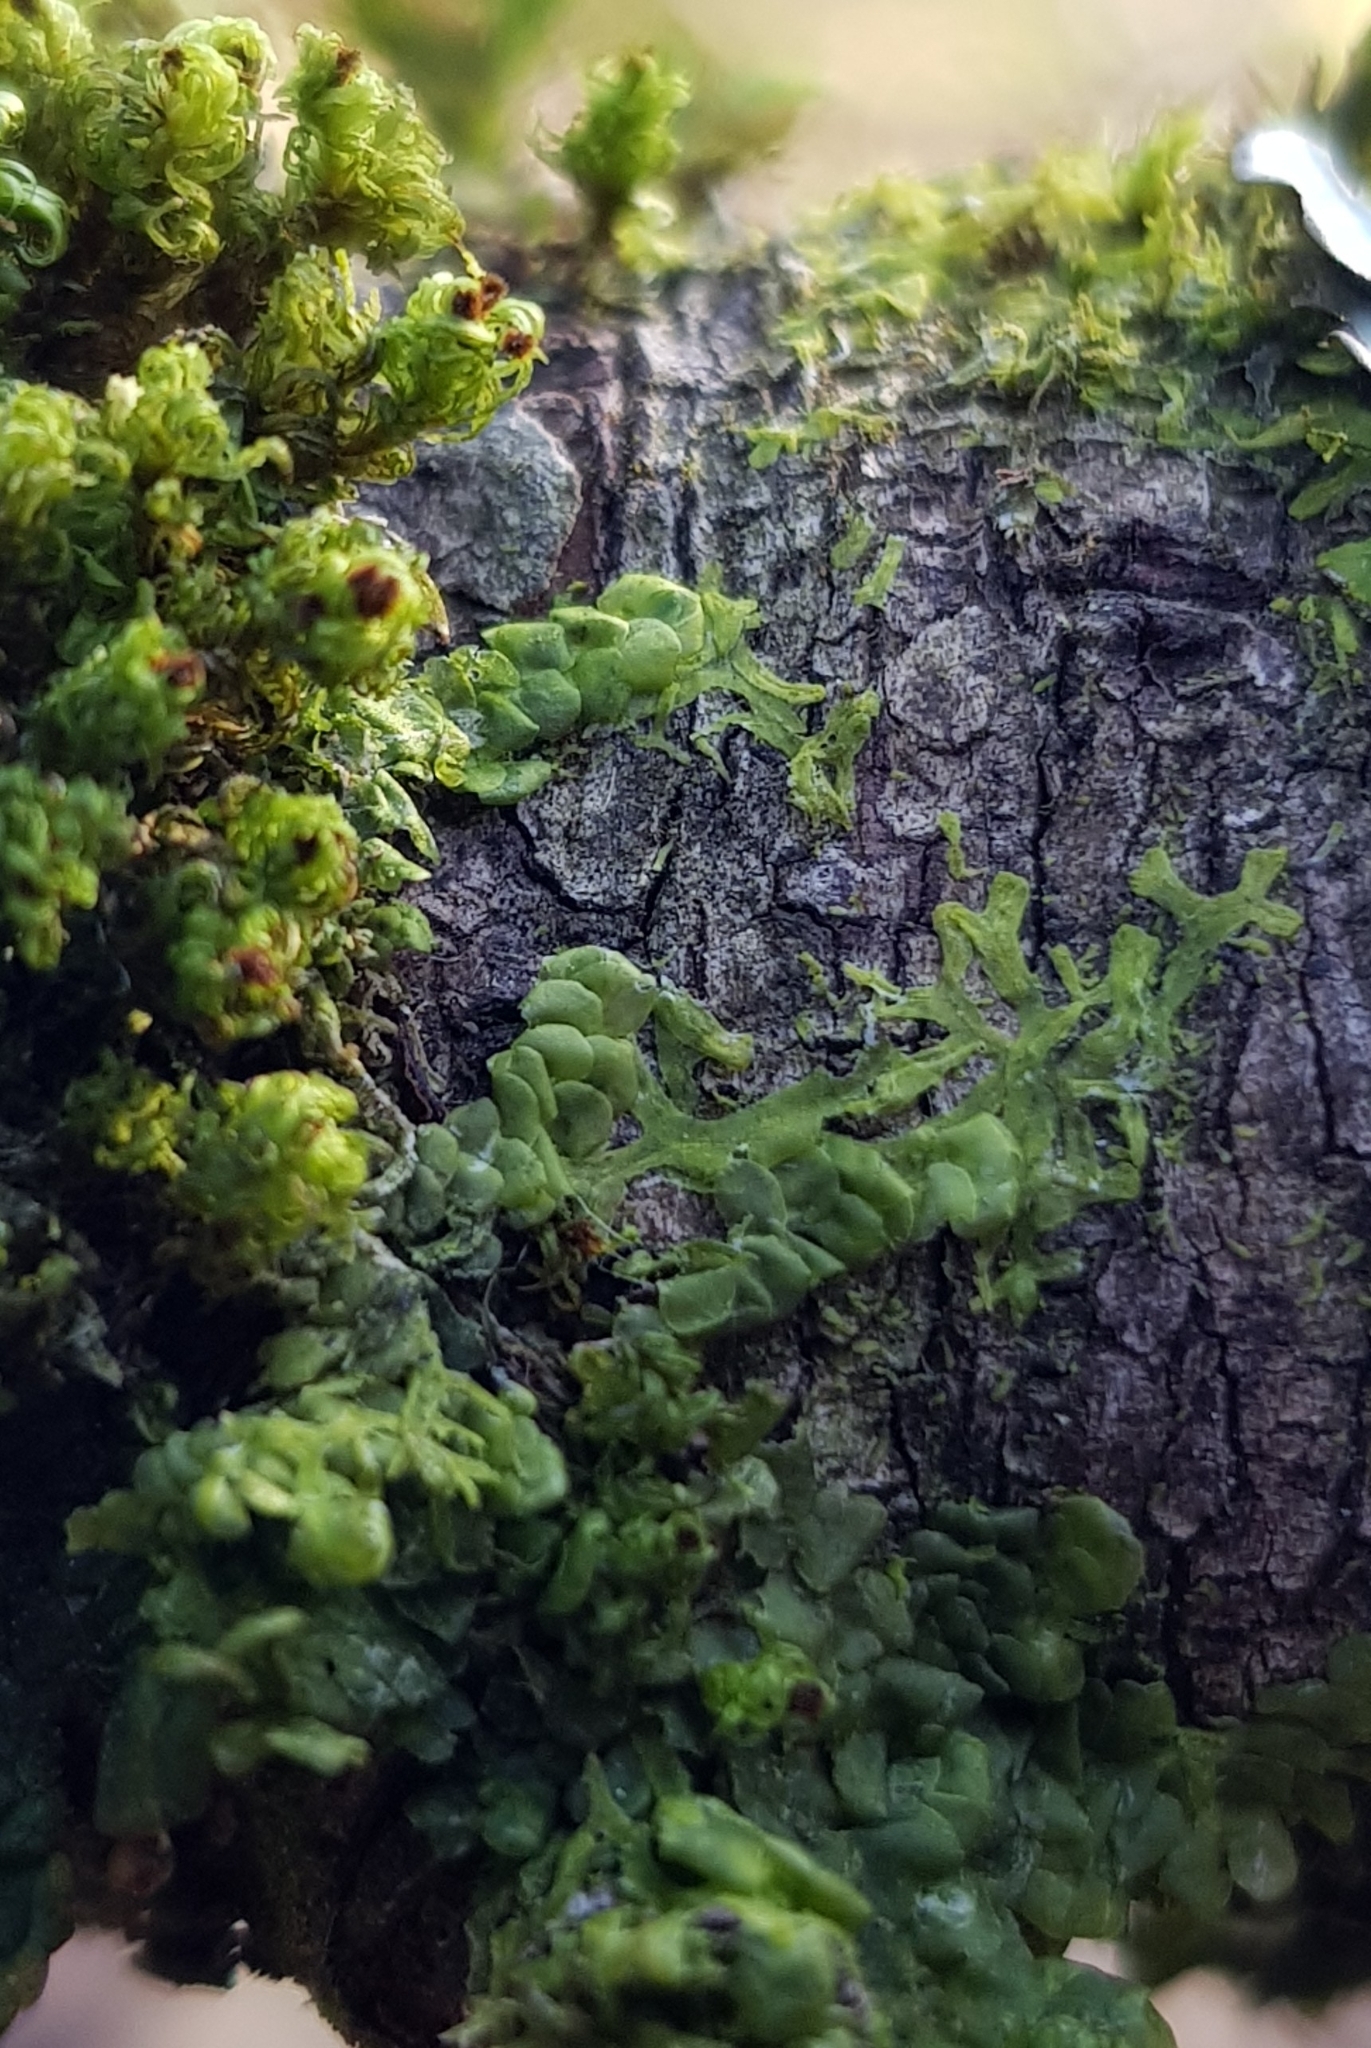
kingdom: Plantae
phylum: Marchantiophyta
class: Jungermanniopsida
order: Porellales
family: Radulaceae
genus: Radula
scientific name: Radula complanata
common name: Flat-leaved scalewort
